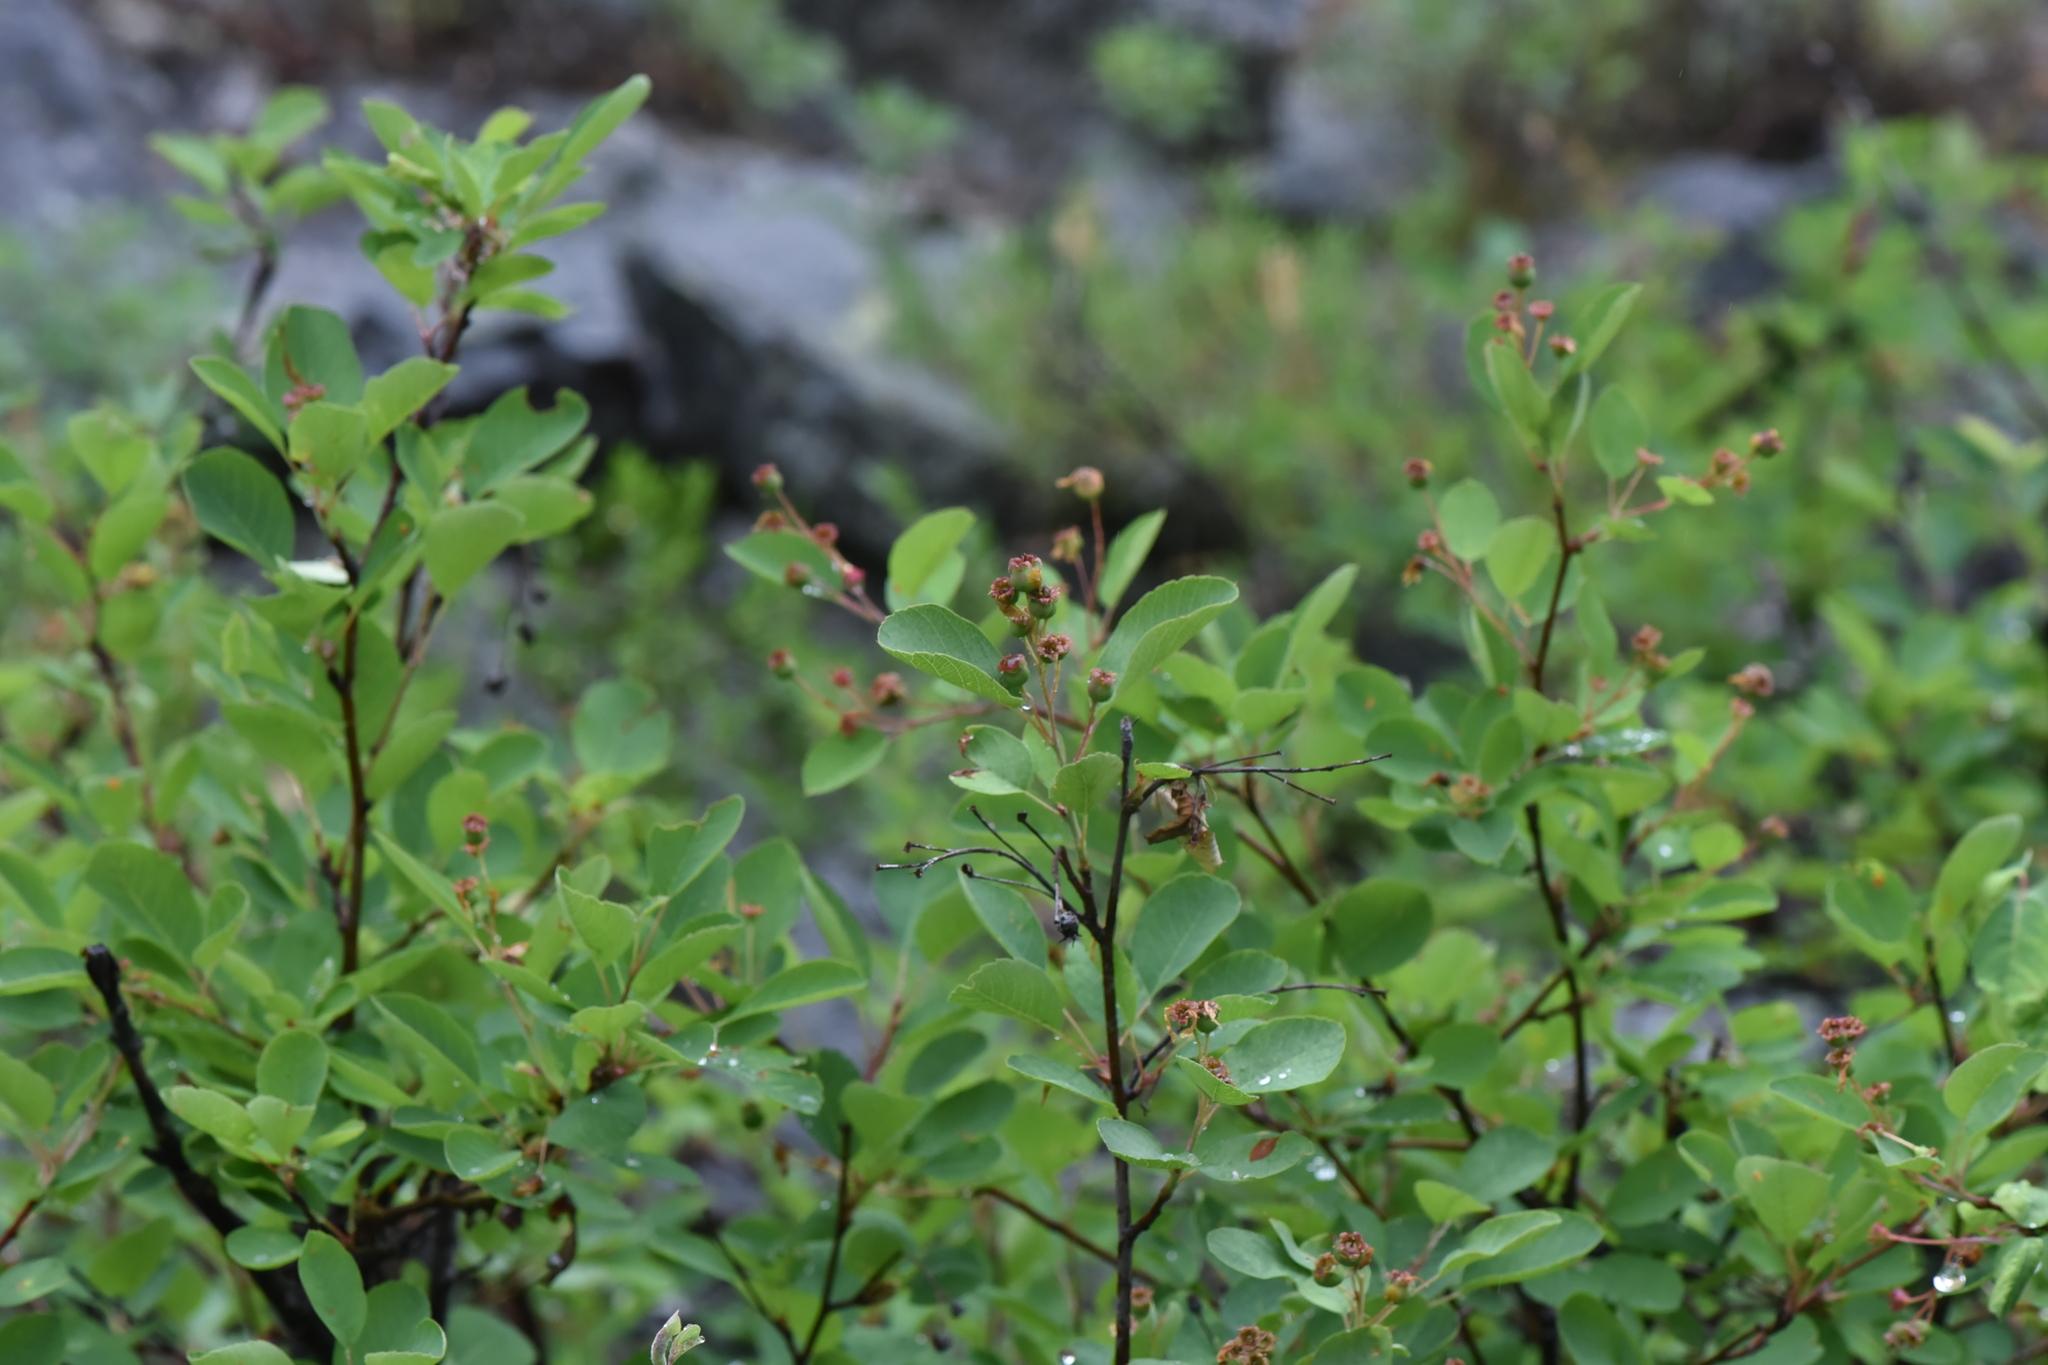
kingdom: Plantae
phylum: Tracheophyta
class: Magnoliopsida
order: Rosales
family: Rosaceae
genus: Amelanchier
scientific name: Amelanchier alnifolia
